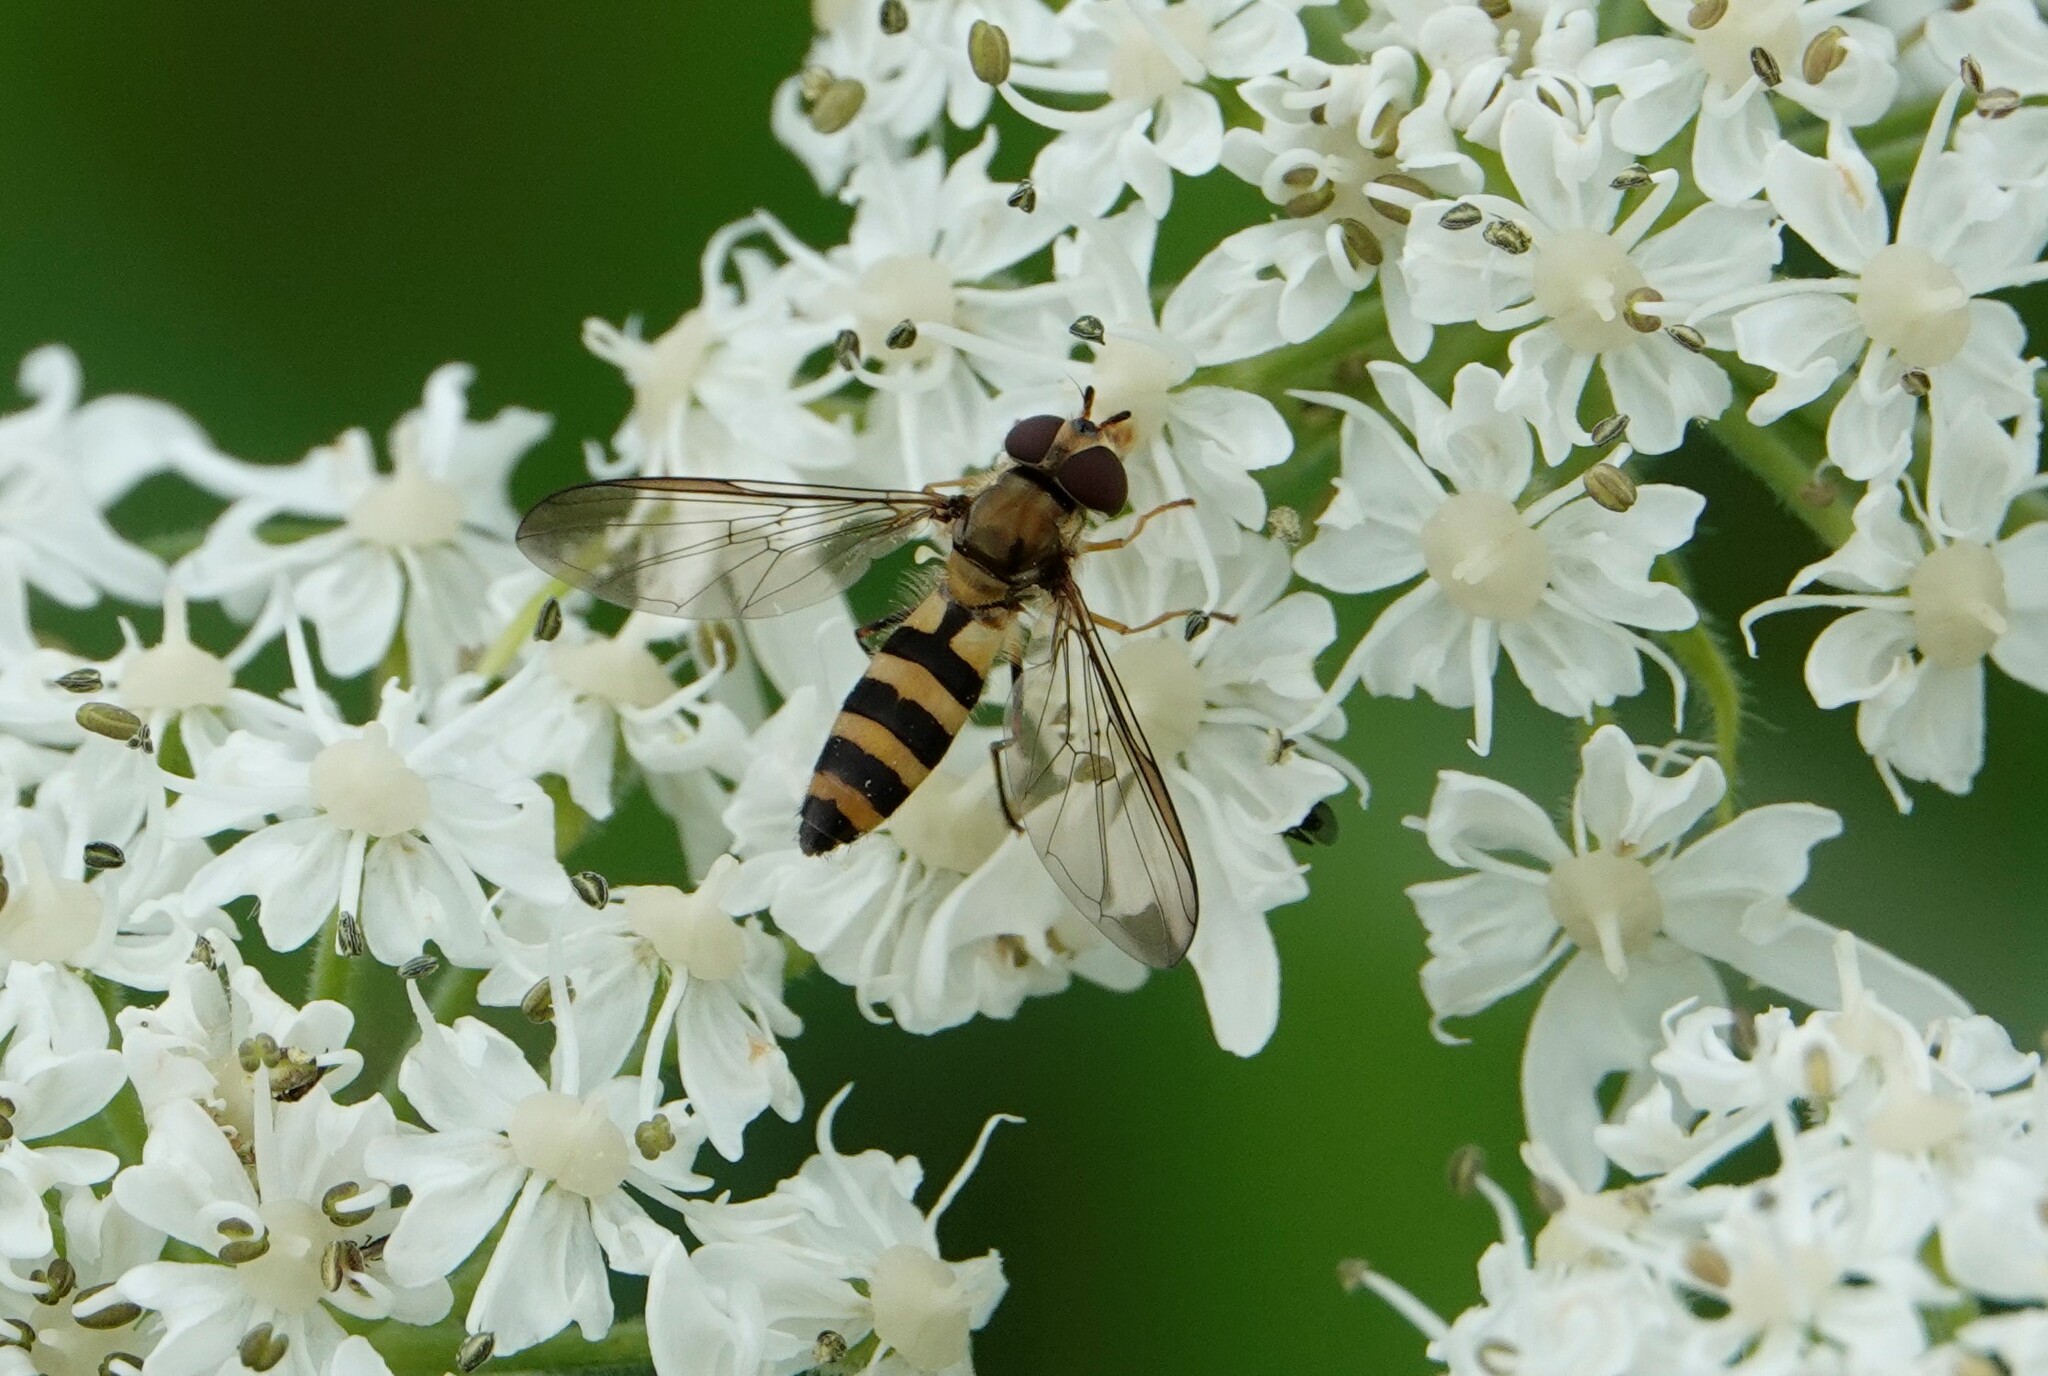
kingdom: Animalia
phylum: Arthropoda
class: Insecta
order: Diptera
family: Syrphidae
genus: Meliscaeva
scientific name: Meliscaeva cinctella
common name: American thintail fly
